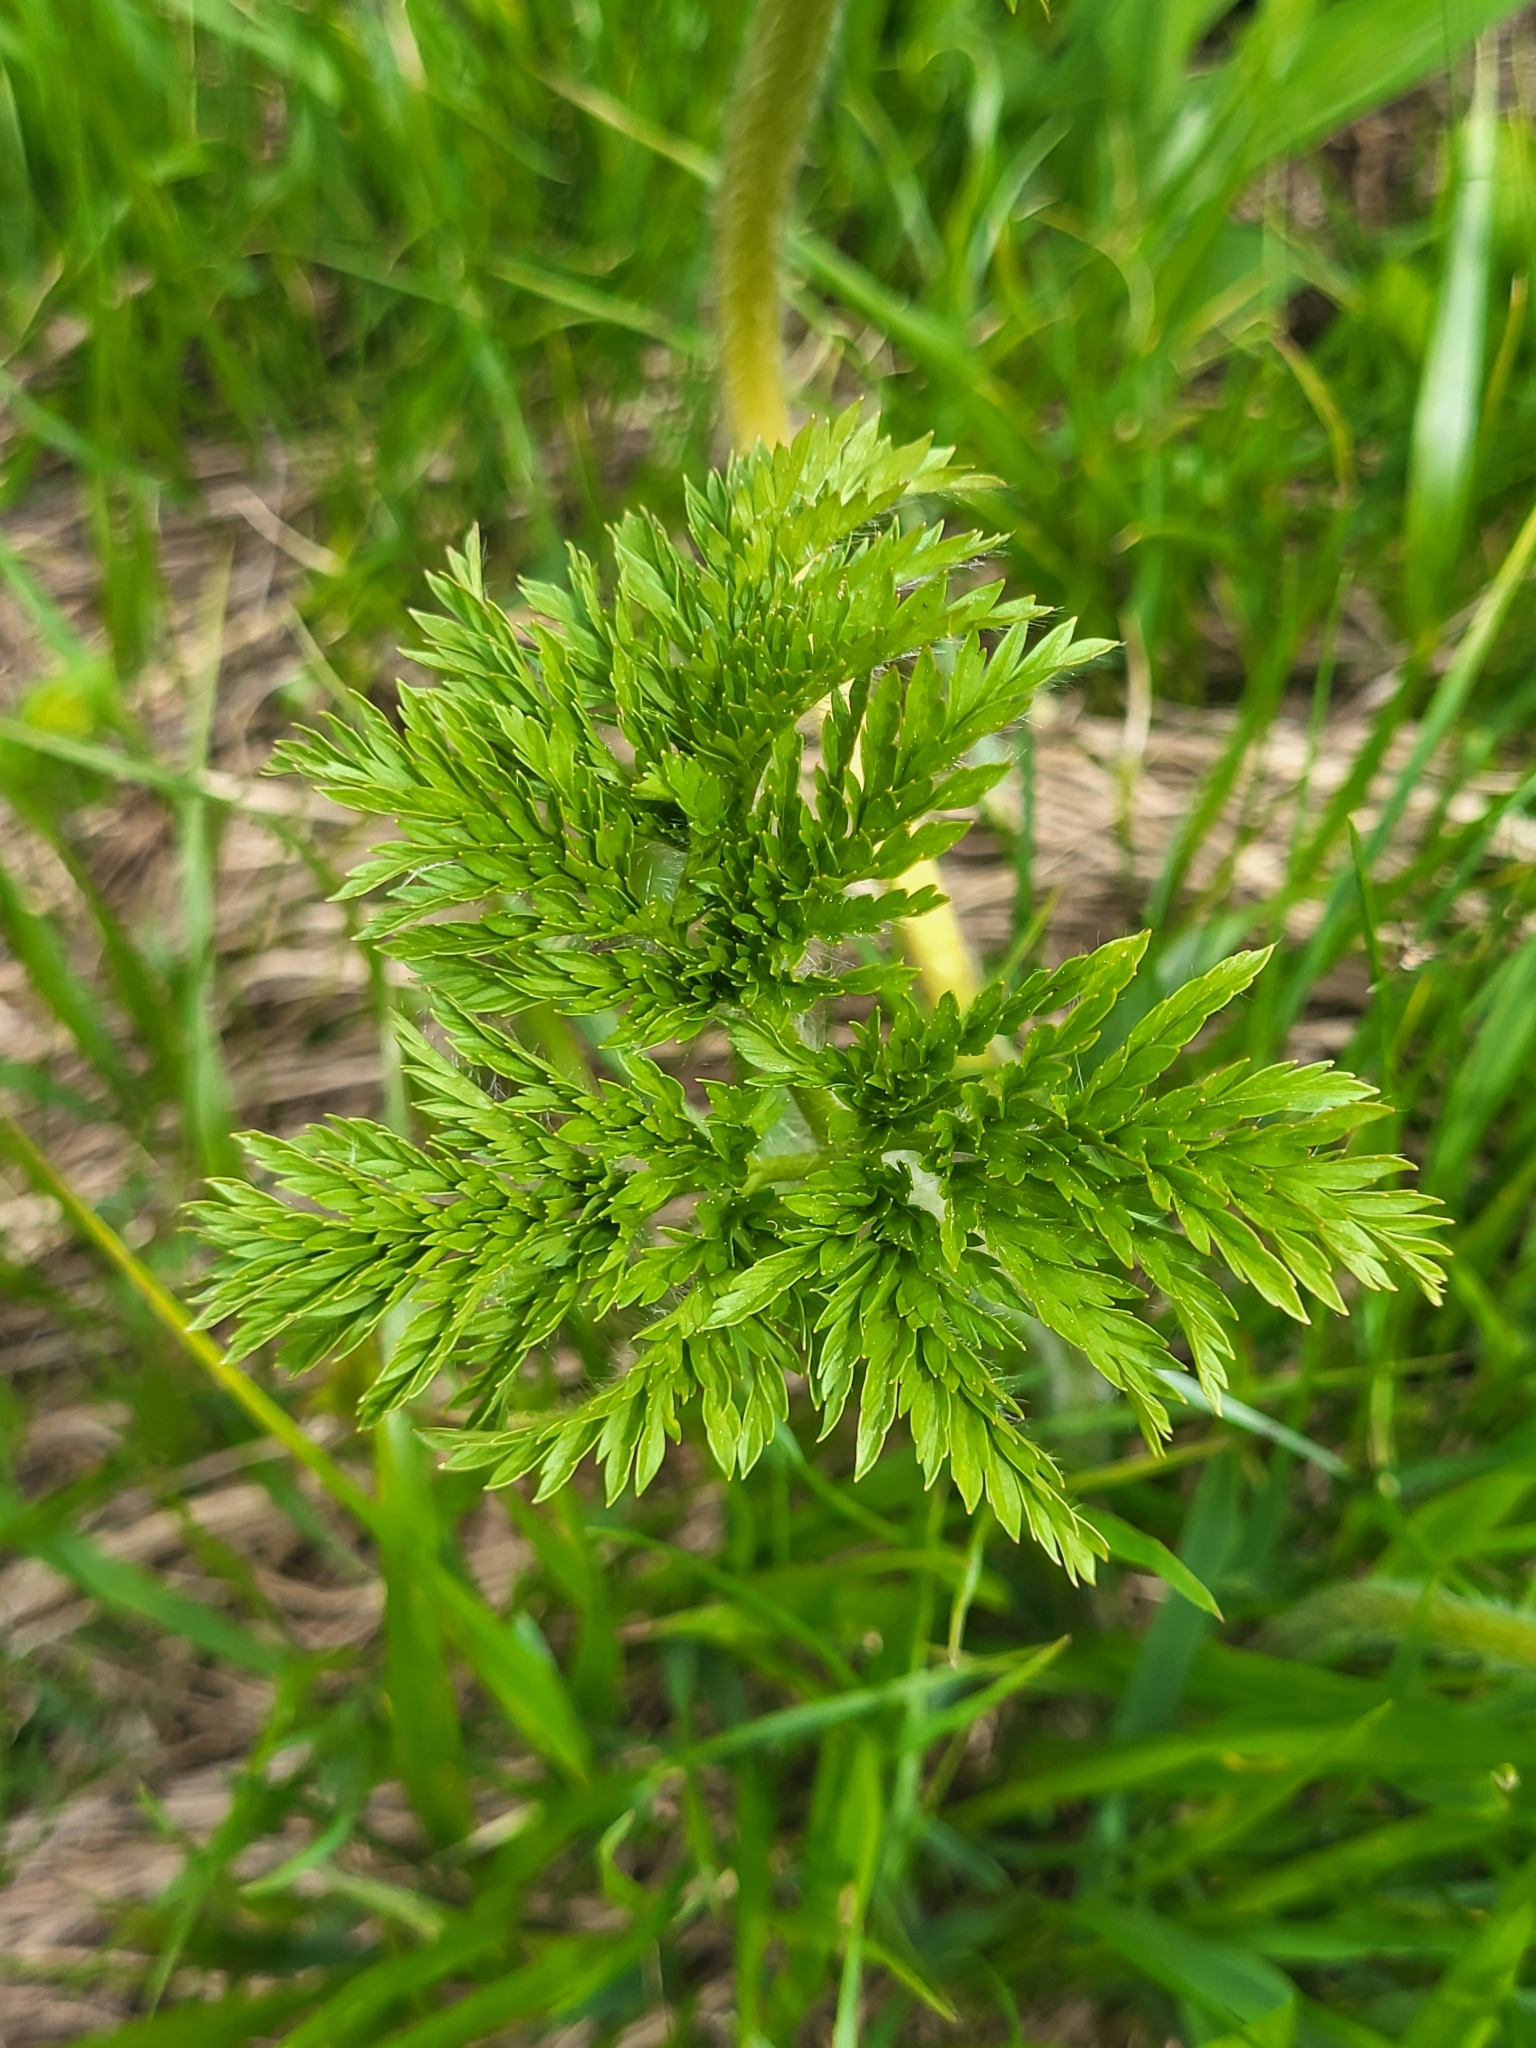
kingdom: Plantae
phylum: Tracheophyta
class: Magnoliopsida
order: Ranunculales
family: Ranunculaceae
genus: Trollius
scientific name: Trollius ranunculinus
